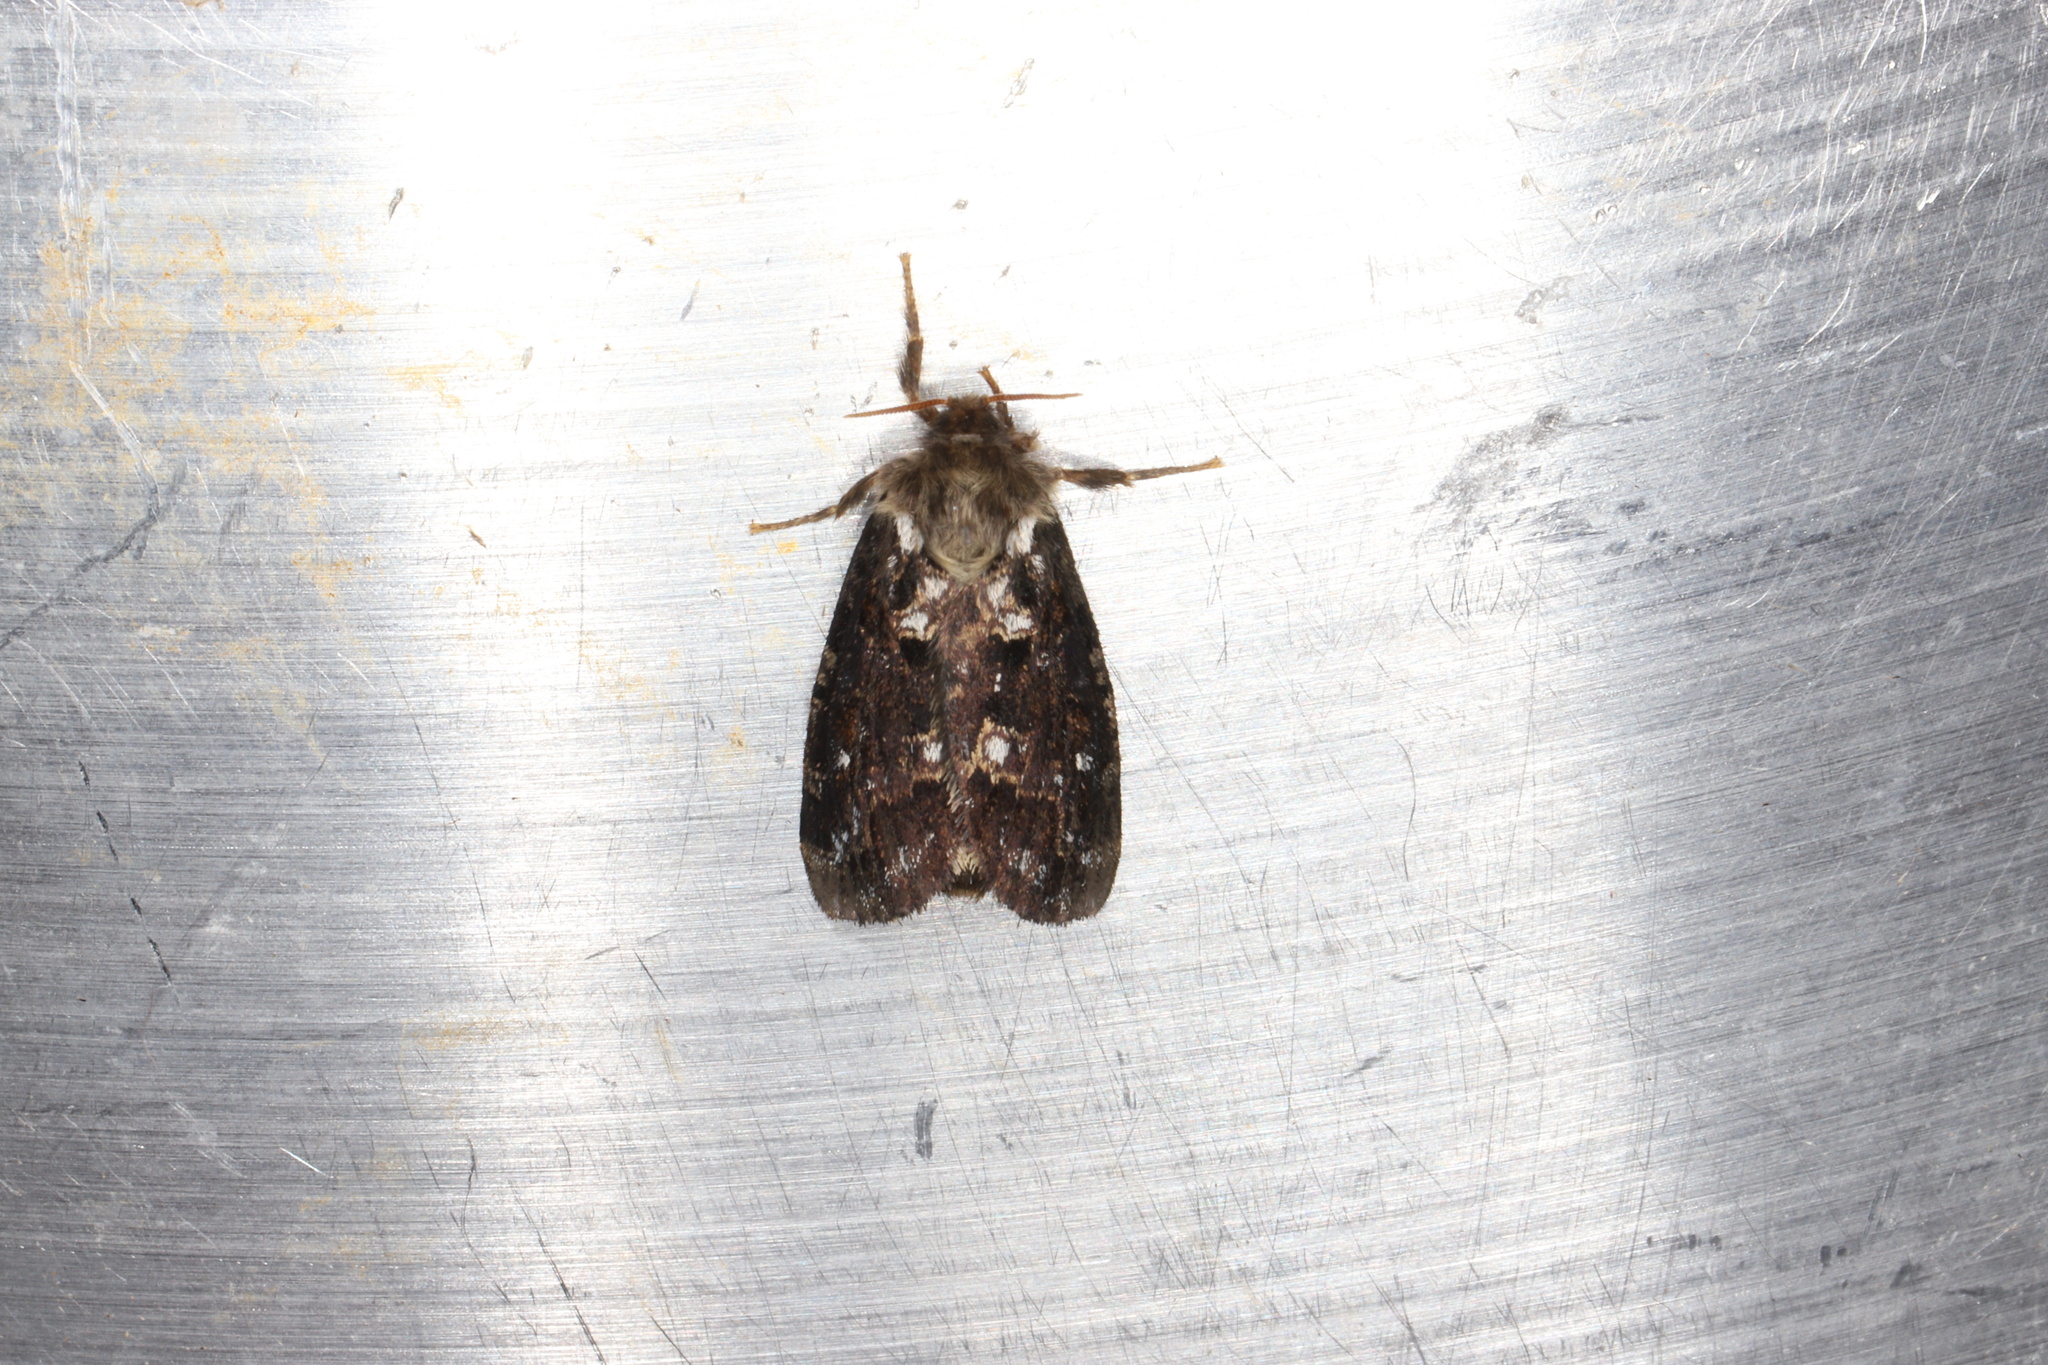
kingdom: Animalia
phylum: Arthropoda
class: Insecta
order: Lepidoptera
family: Hepialidae
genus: Korscheltellus
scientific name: Korscheltellus gracilis
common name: Conifer swift moth
